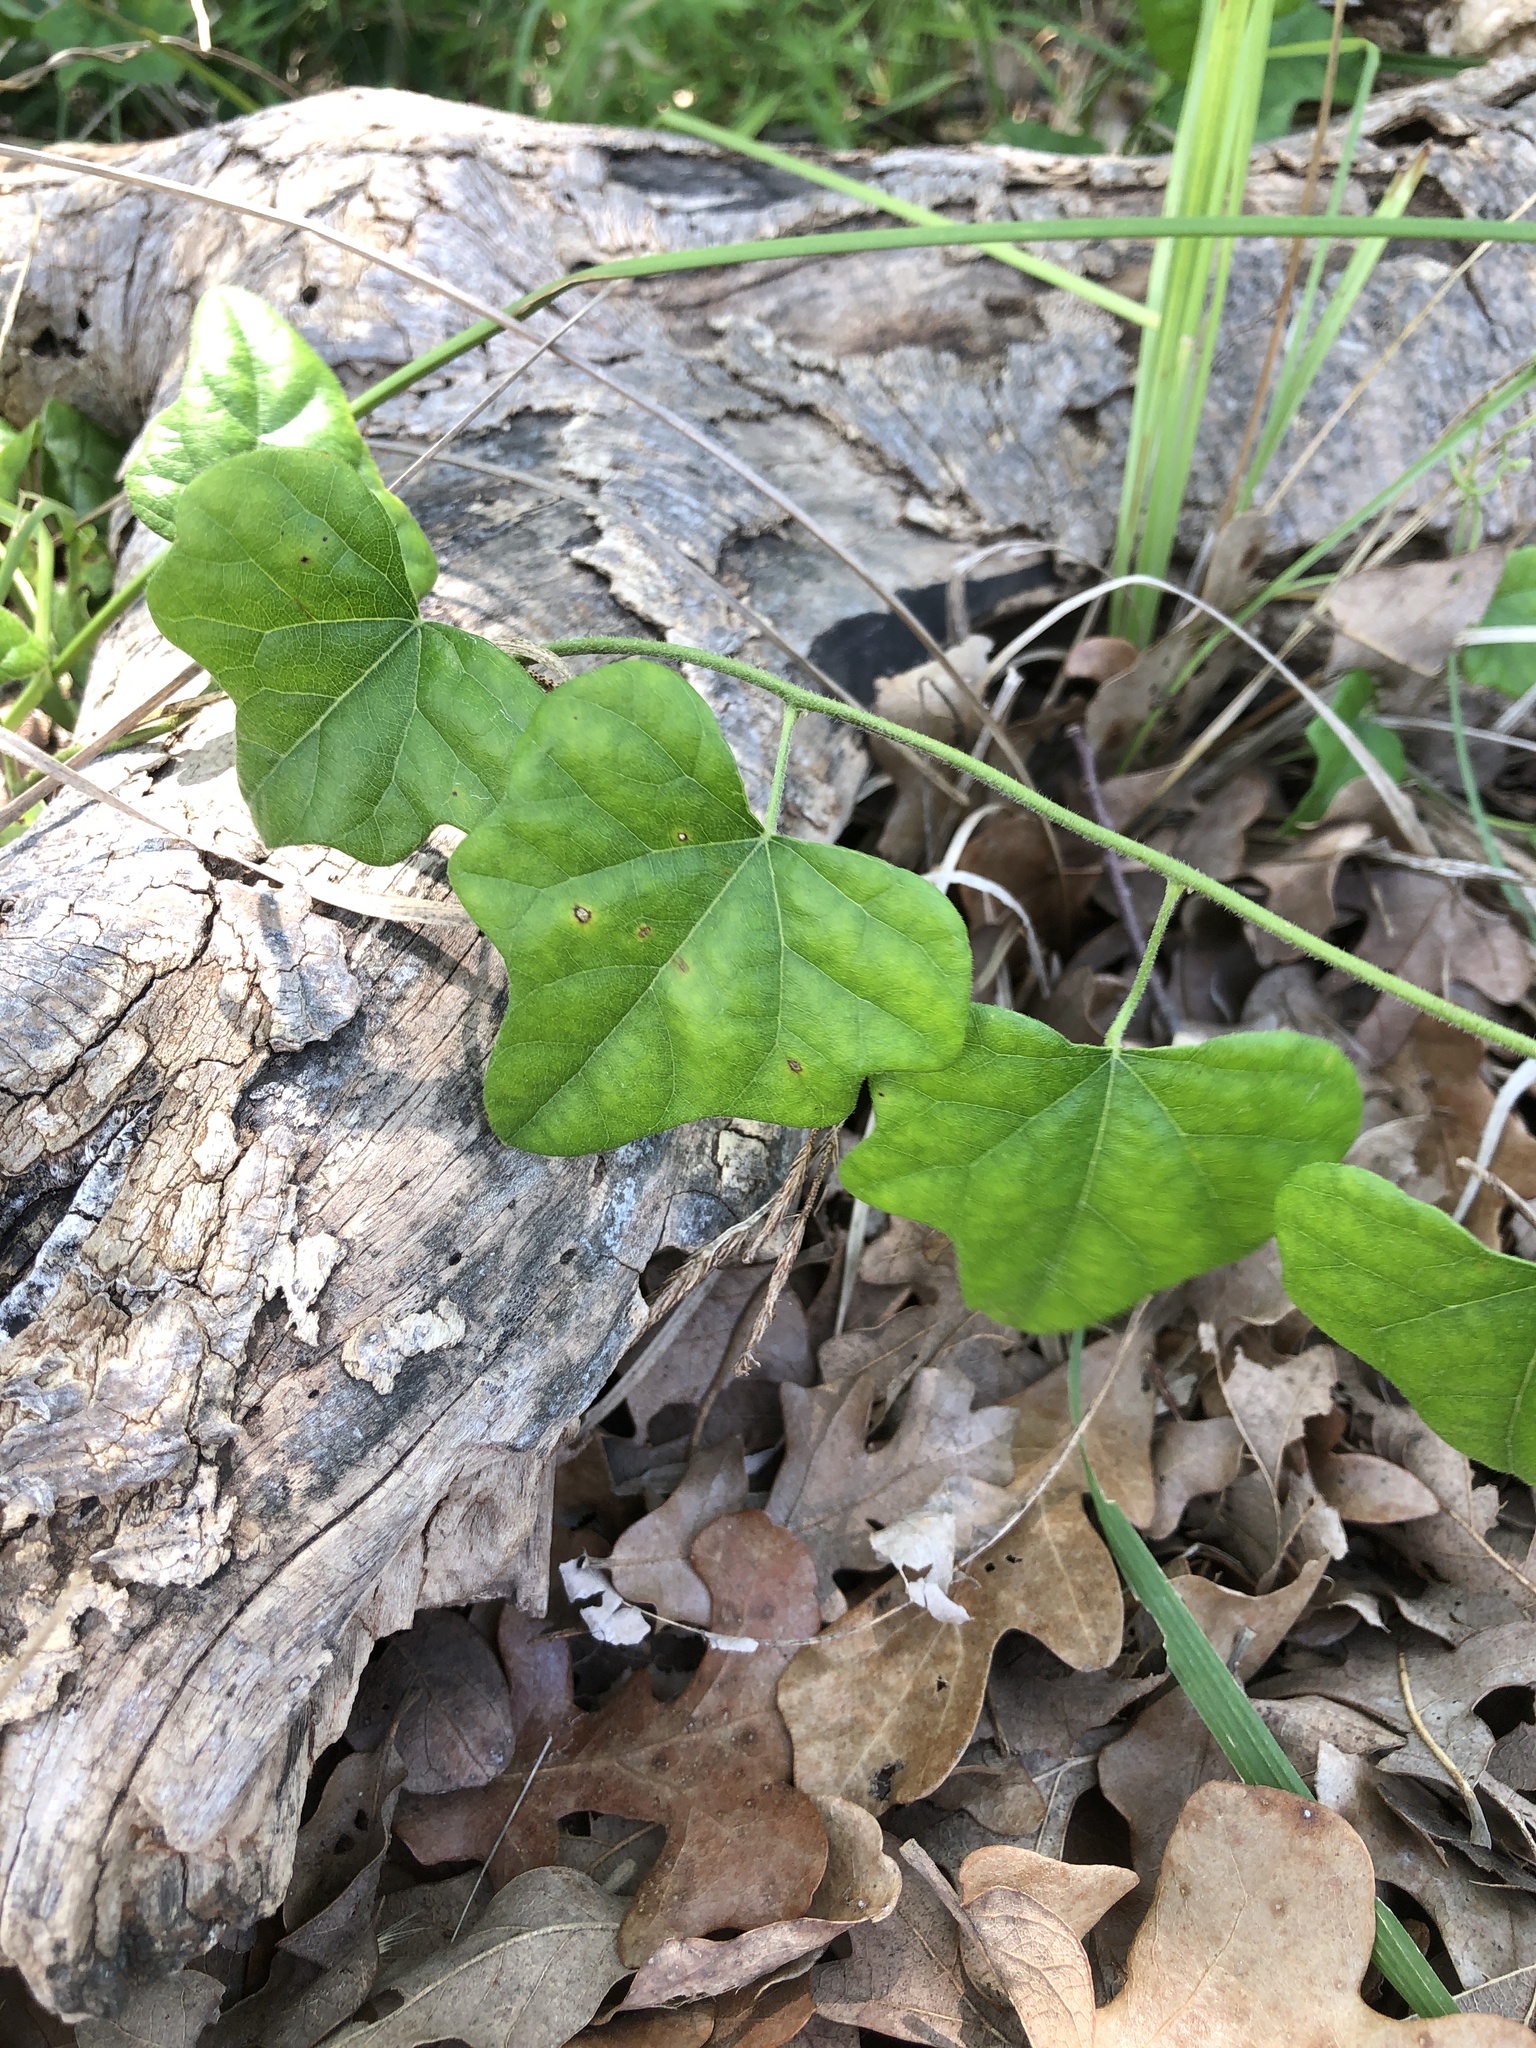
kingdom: Plantae
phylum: Tracheophyta
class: Magnoliopsida
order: Ranunculales
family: Menispermaceae
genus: Cocculus
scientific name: Cocculus carolinus
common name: Carolina moonseed
